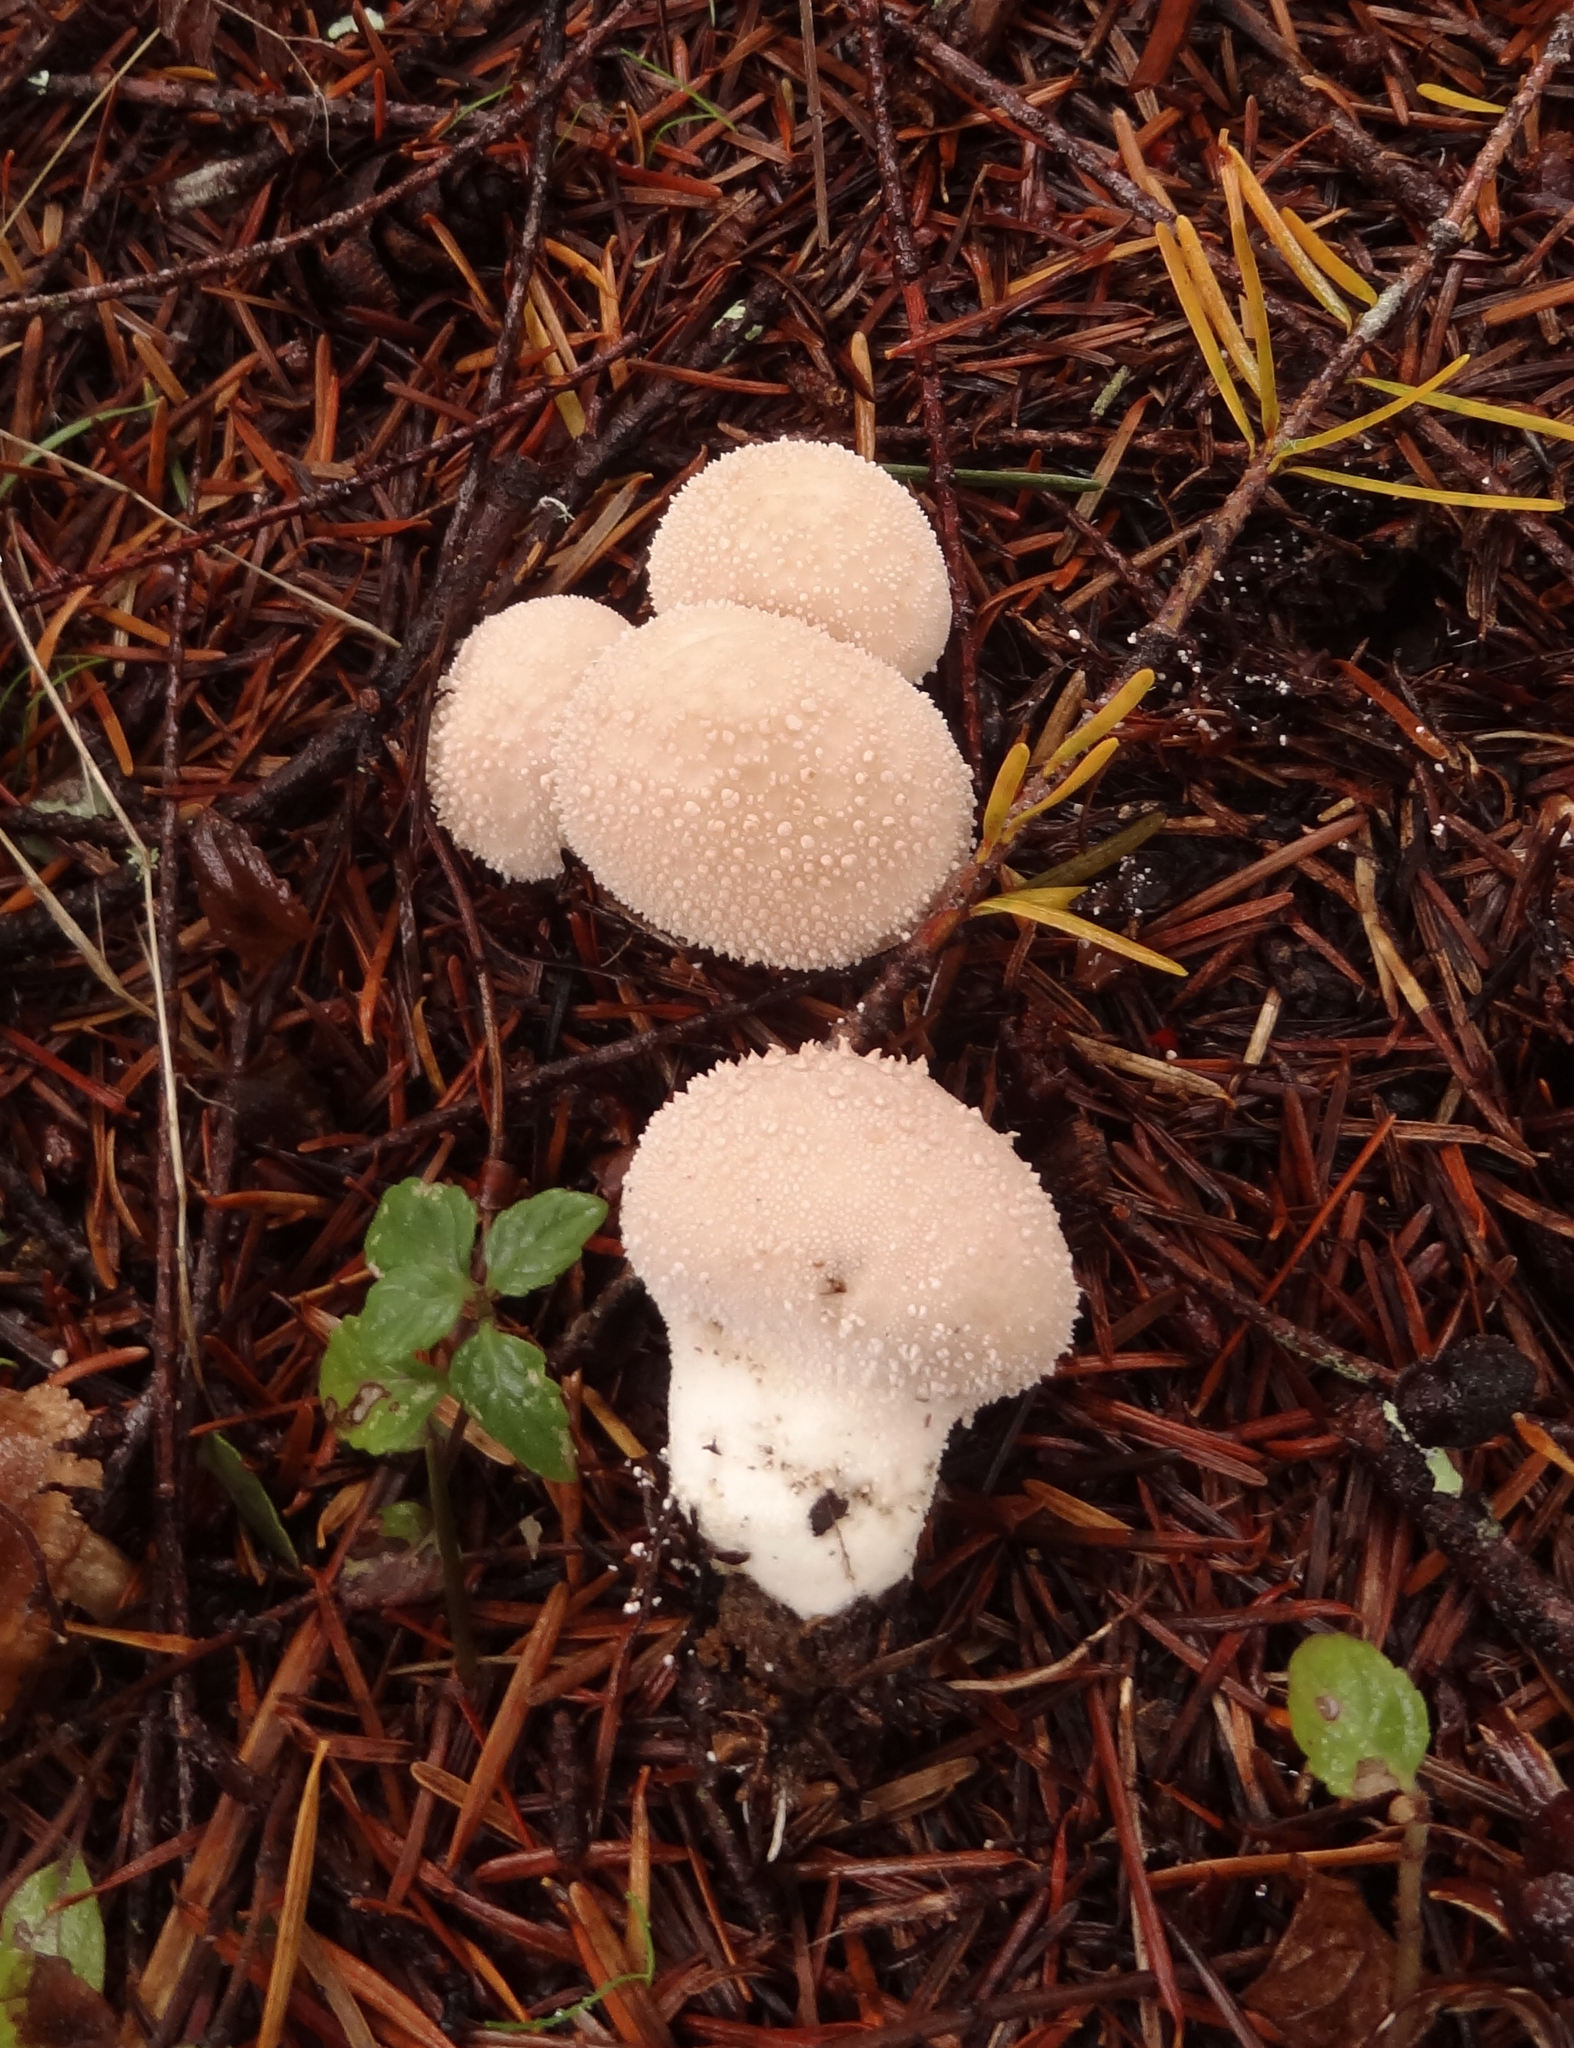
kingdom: Fungi
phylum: Basidiomycota
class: Agaricomycetes
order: Agaricales
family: Lycoperdaceae
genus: Lycoperdon
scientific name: Lycoperdon perlatum
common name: Common puffball
